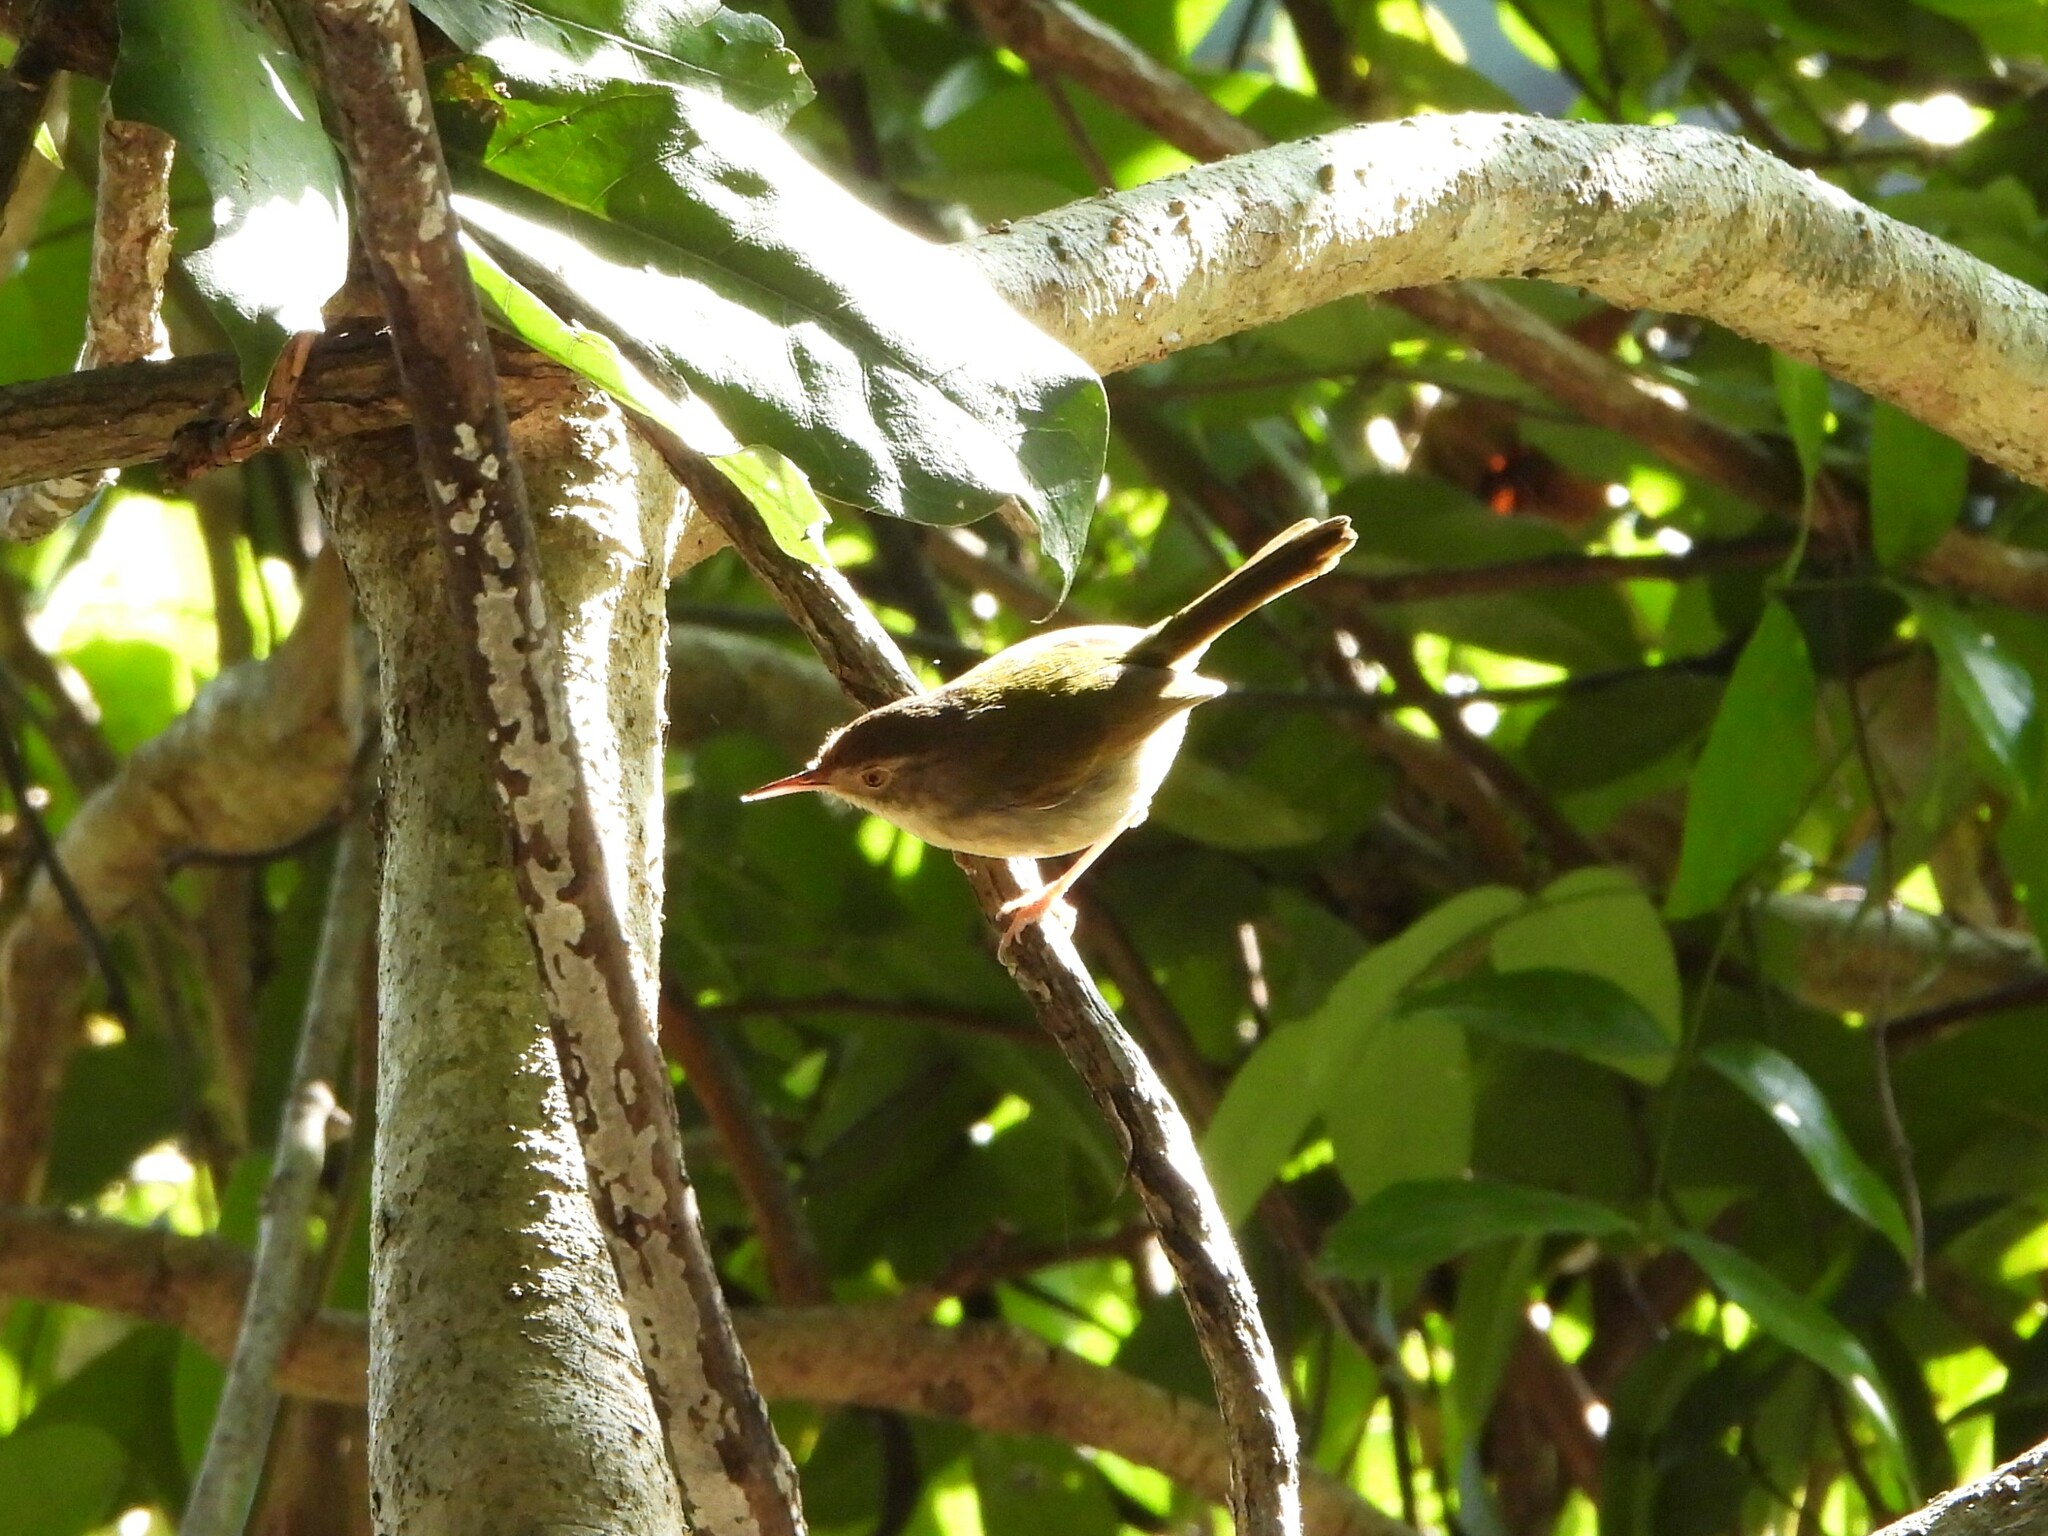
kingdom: Animalia
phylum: Chordata
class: Aves
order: Passeriformes
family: Cisticolidae
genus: Orthotomus
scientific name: Orthotomus sutorius
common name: Common tailorbird
